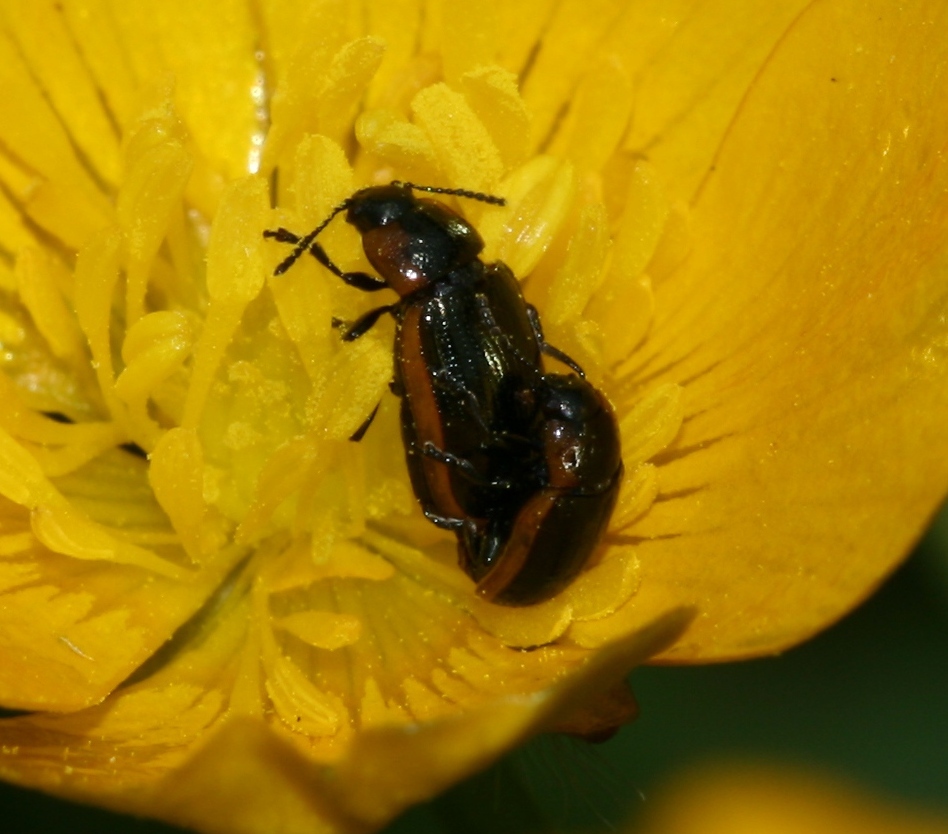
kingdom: Animalia
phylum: Arthropoda
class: Insecta
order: Coleoptera
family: Chrysomelidae
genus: Prasocuris
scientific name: Prasocuris marginella
